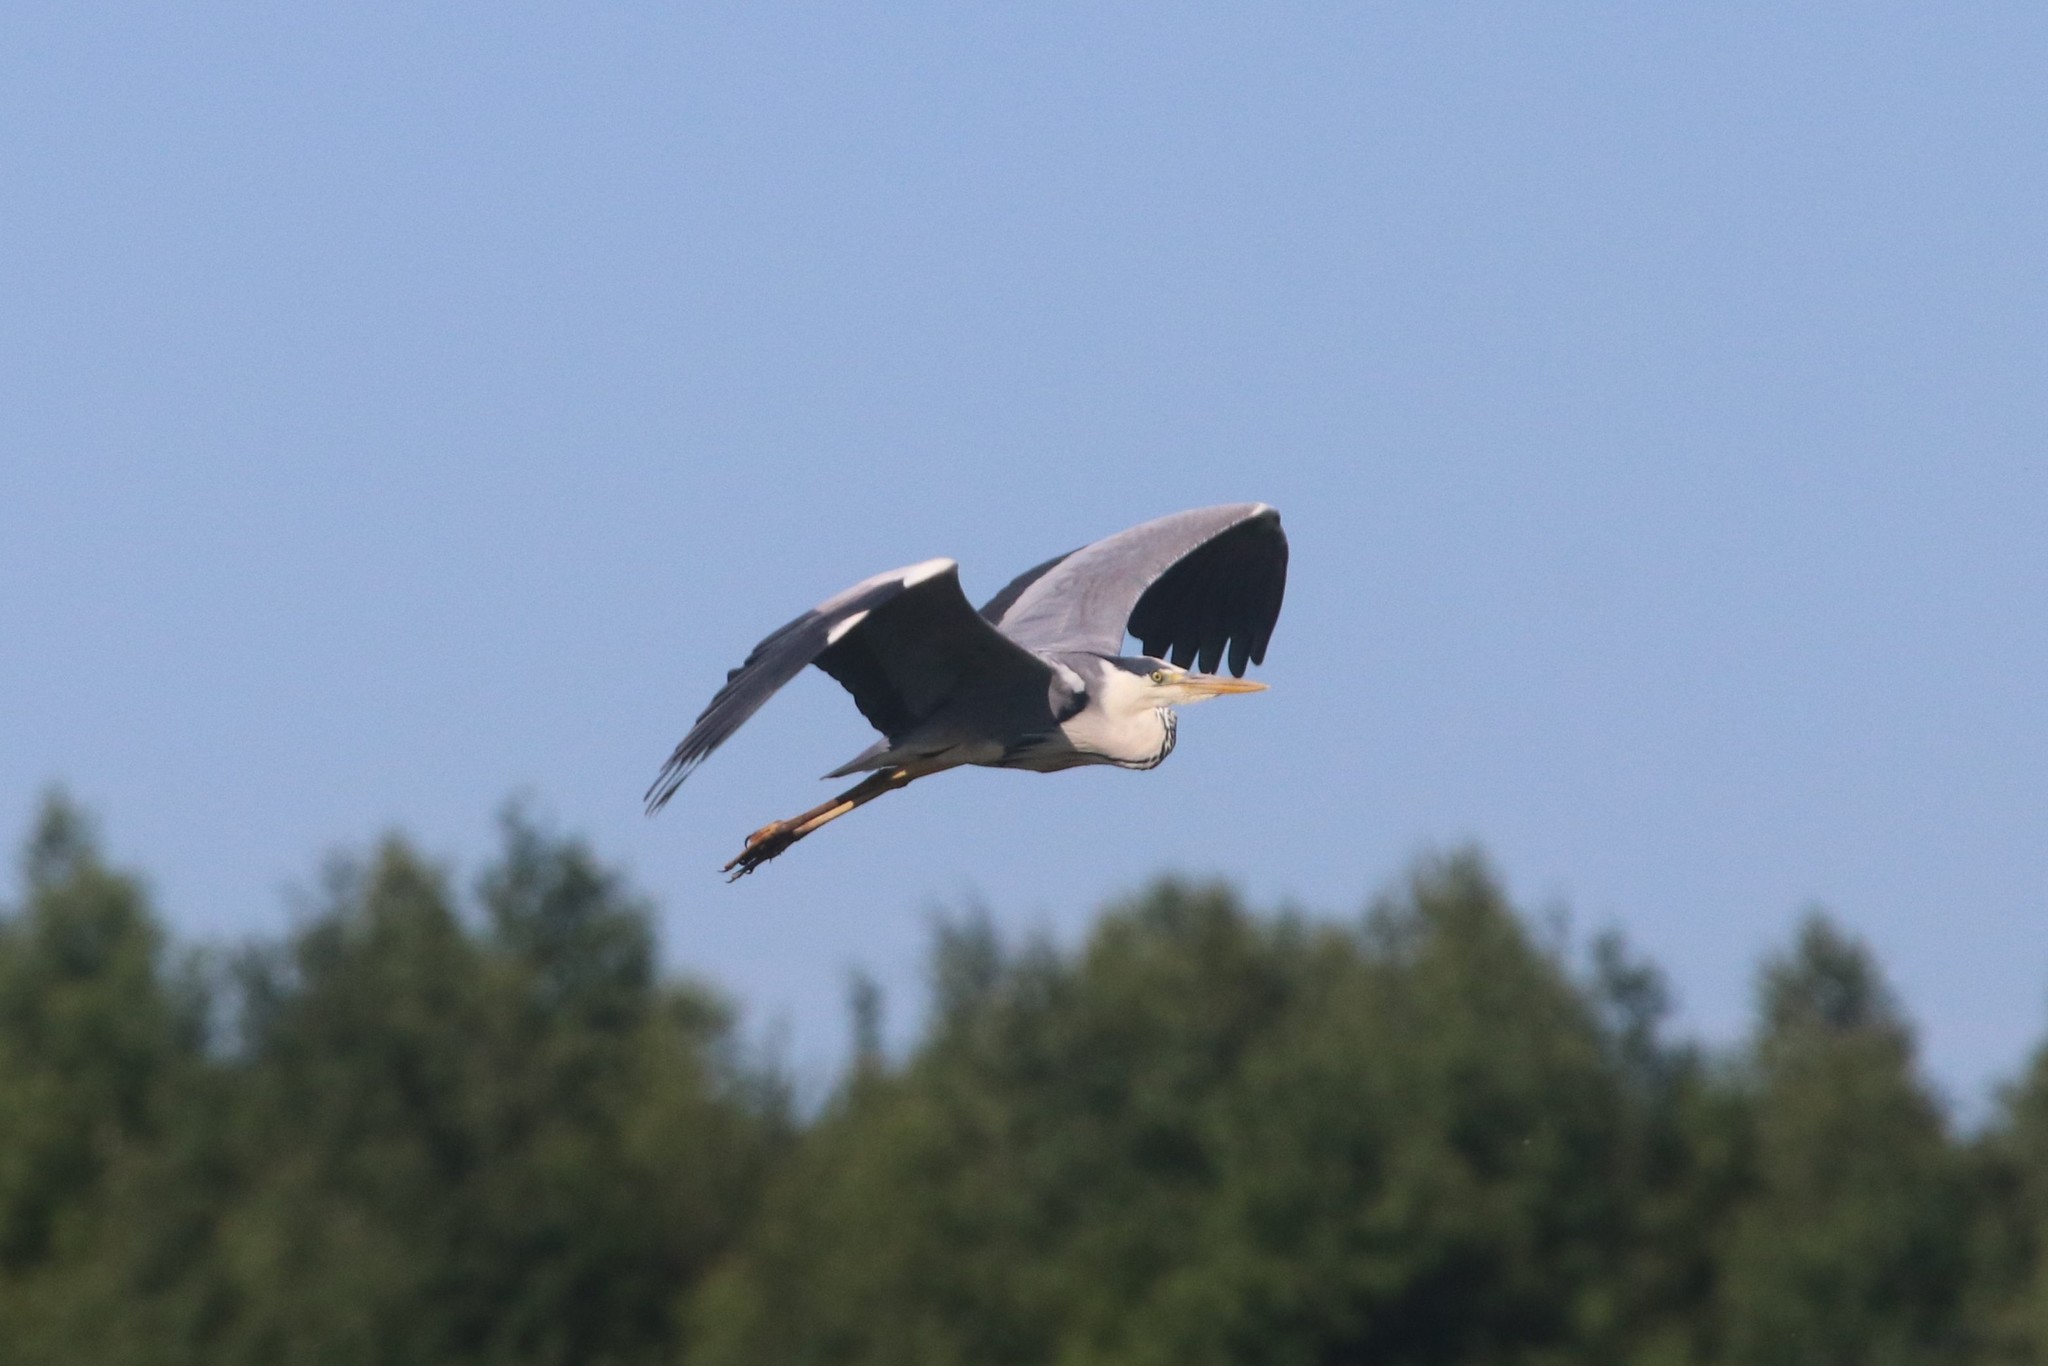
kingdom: Animalia
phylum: Chordata
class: Aves
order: Pelecaniformes
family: Ardeidae
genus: Ardea
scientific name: Ardea cinerea
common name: Grey heron
